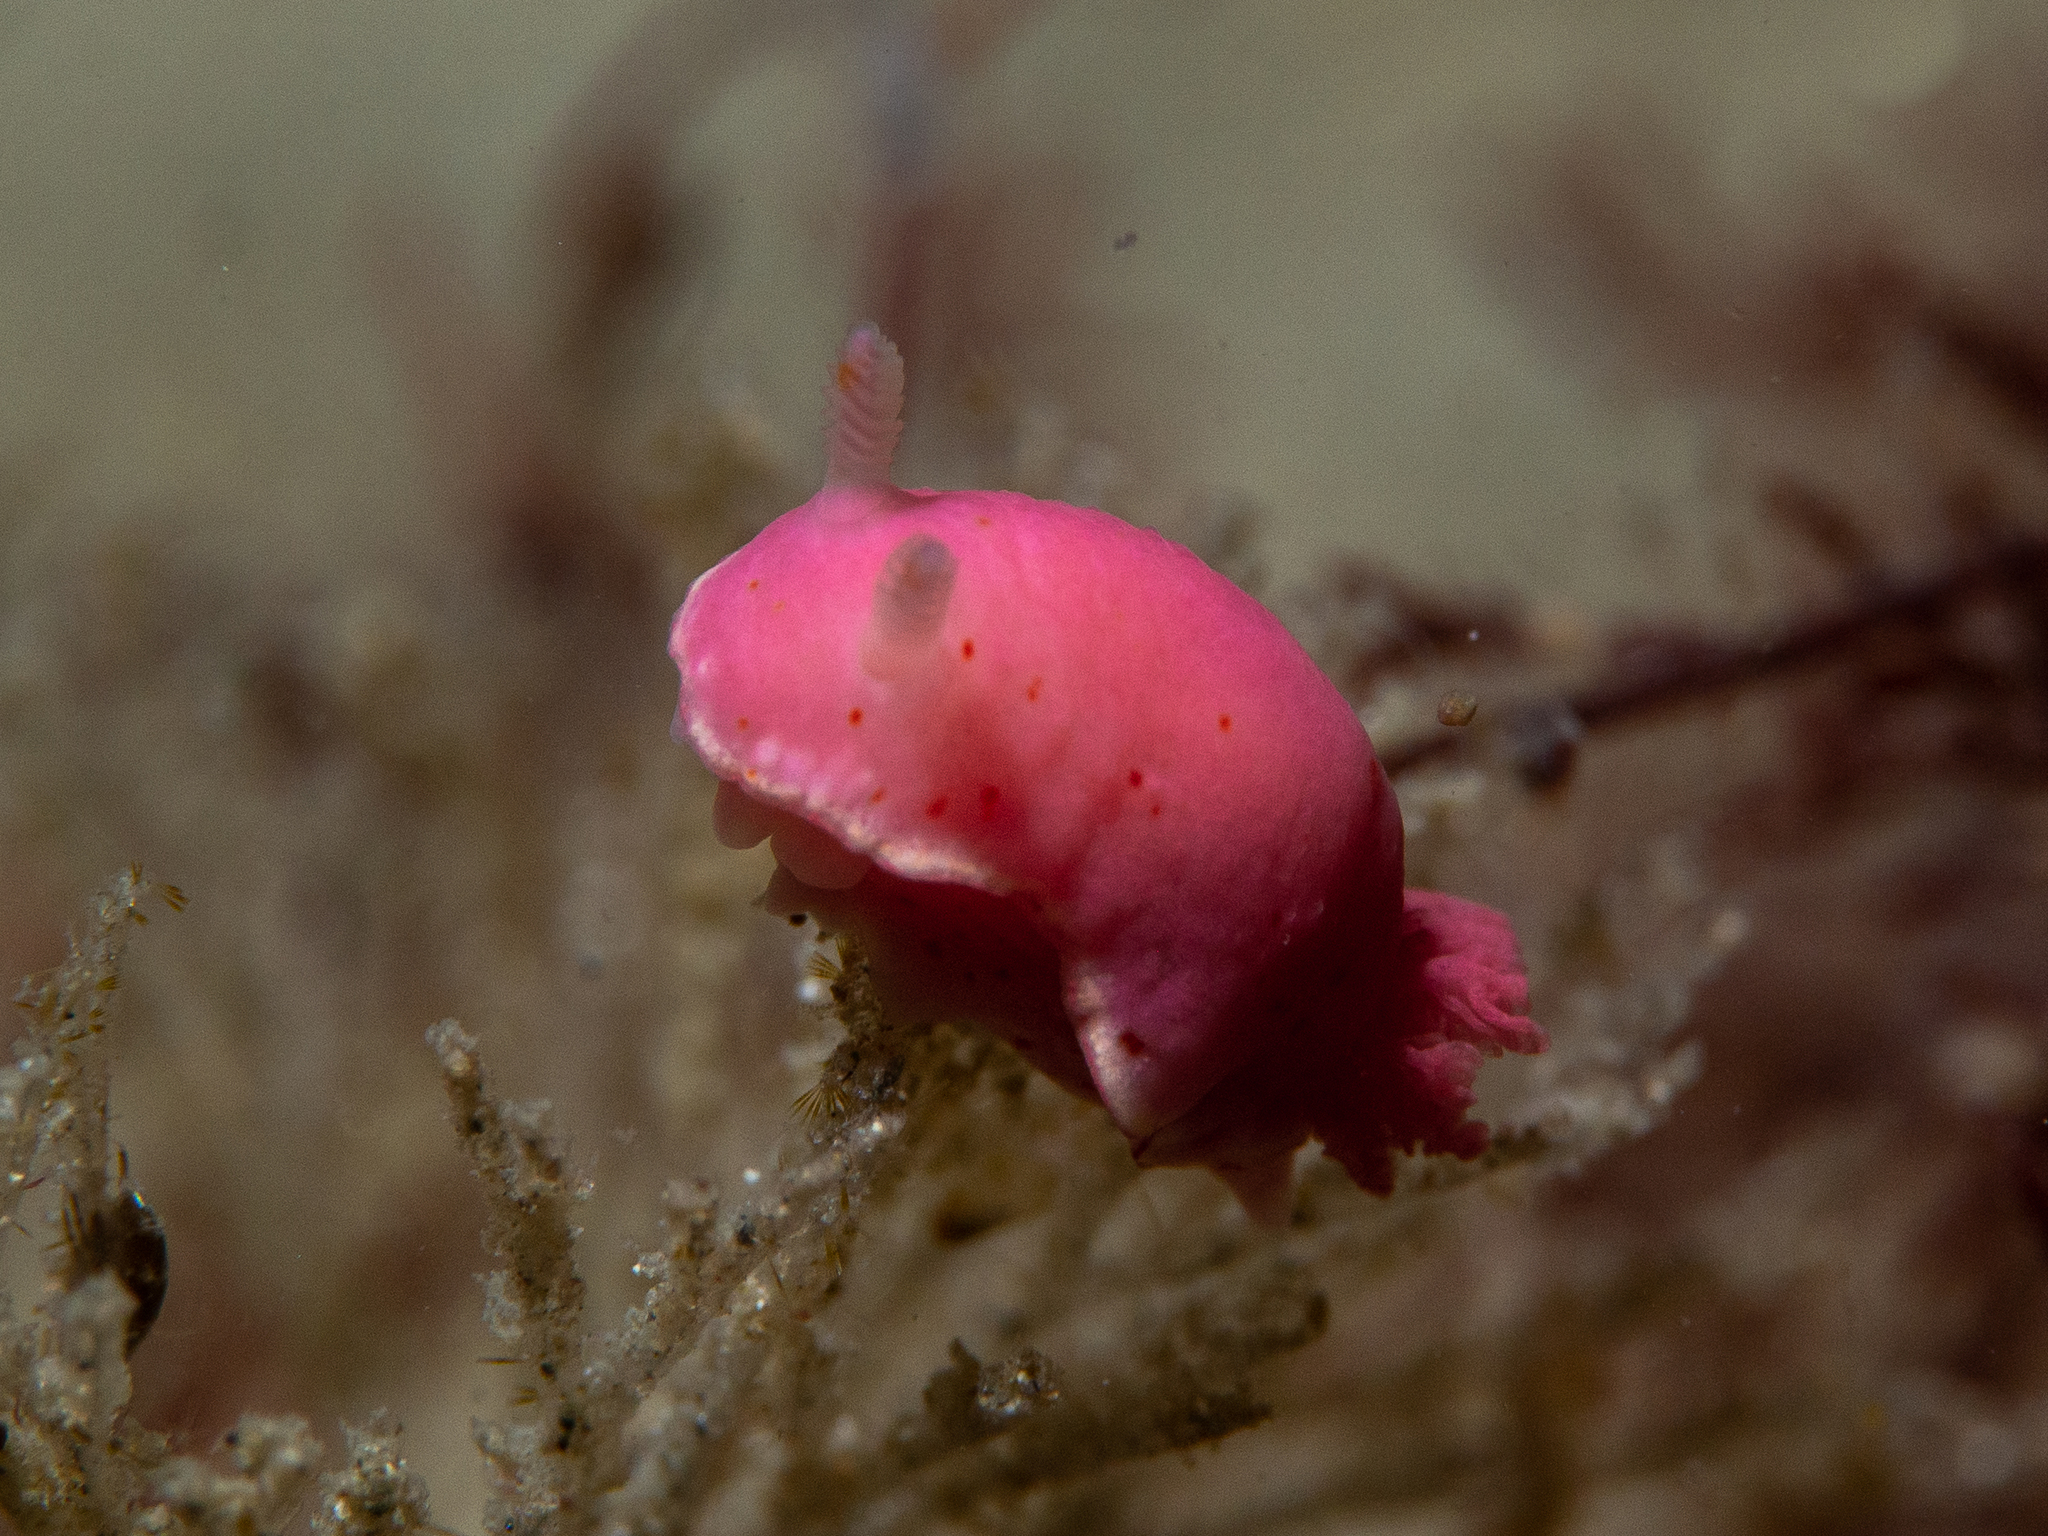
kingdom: Animalia
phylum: Mollusca
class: Gastropoda
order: Nudibranchia
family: Chromodorididae
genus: Verconia
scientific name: Verconia haliclona
